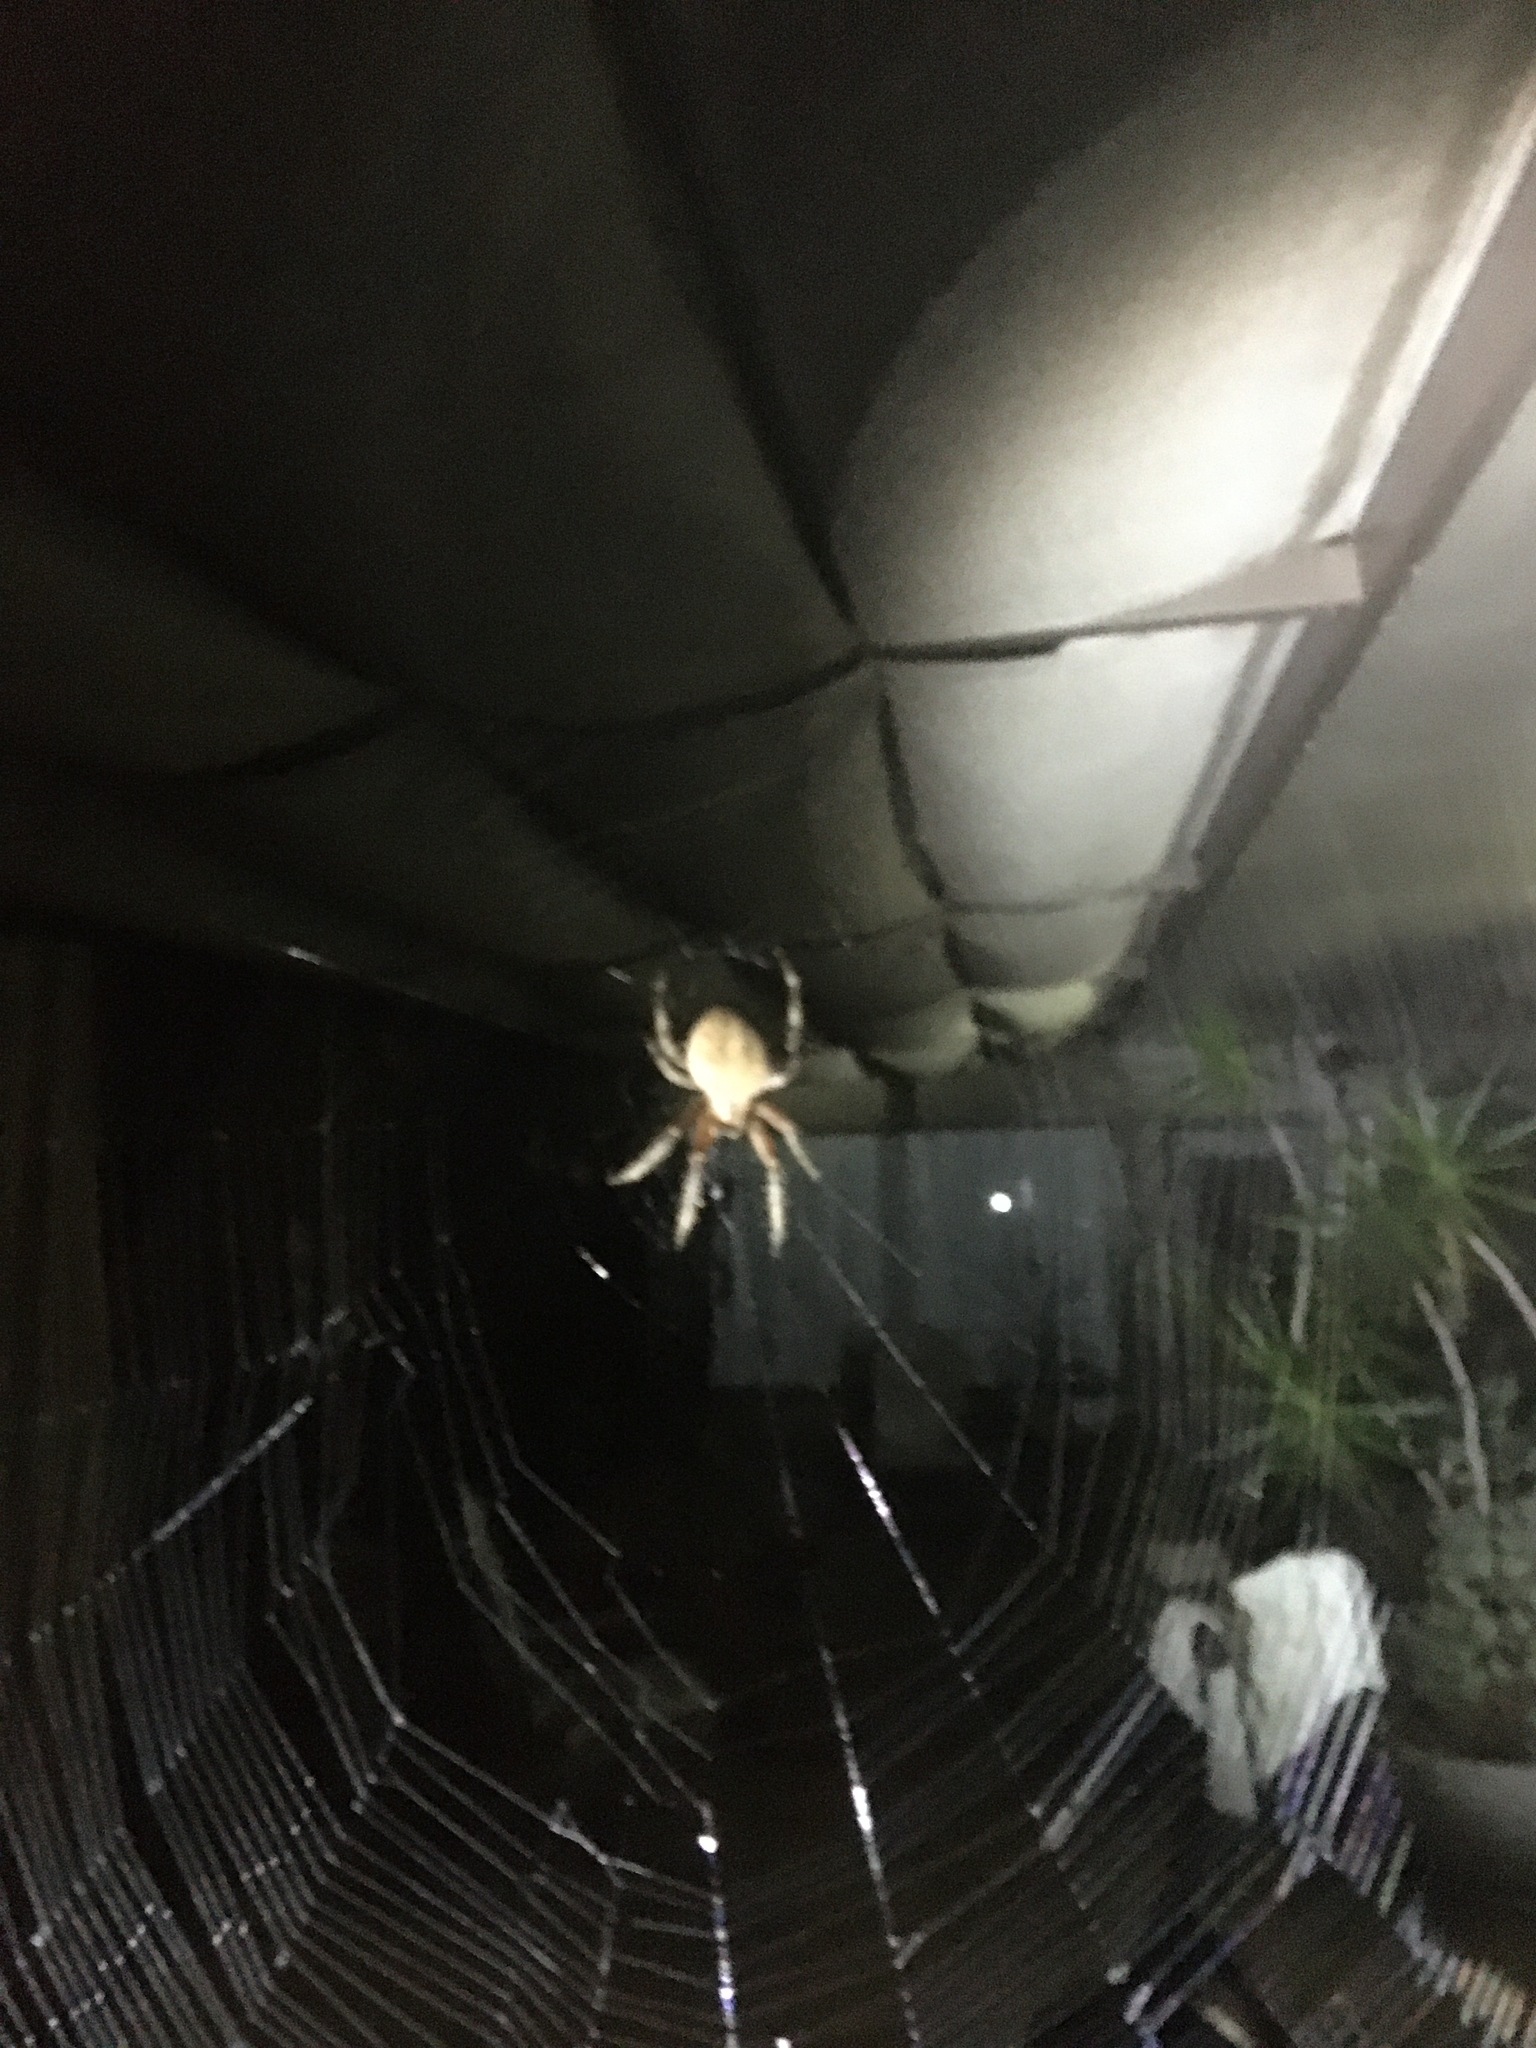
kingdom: Animalia
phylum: Arthropoda
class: Arachnida
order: Araneae
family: Araneidae
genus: Neoscona
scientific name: Neoscona crucifera
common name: Spotted orbweaver
